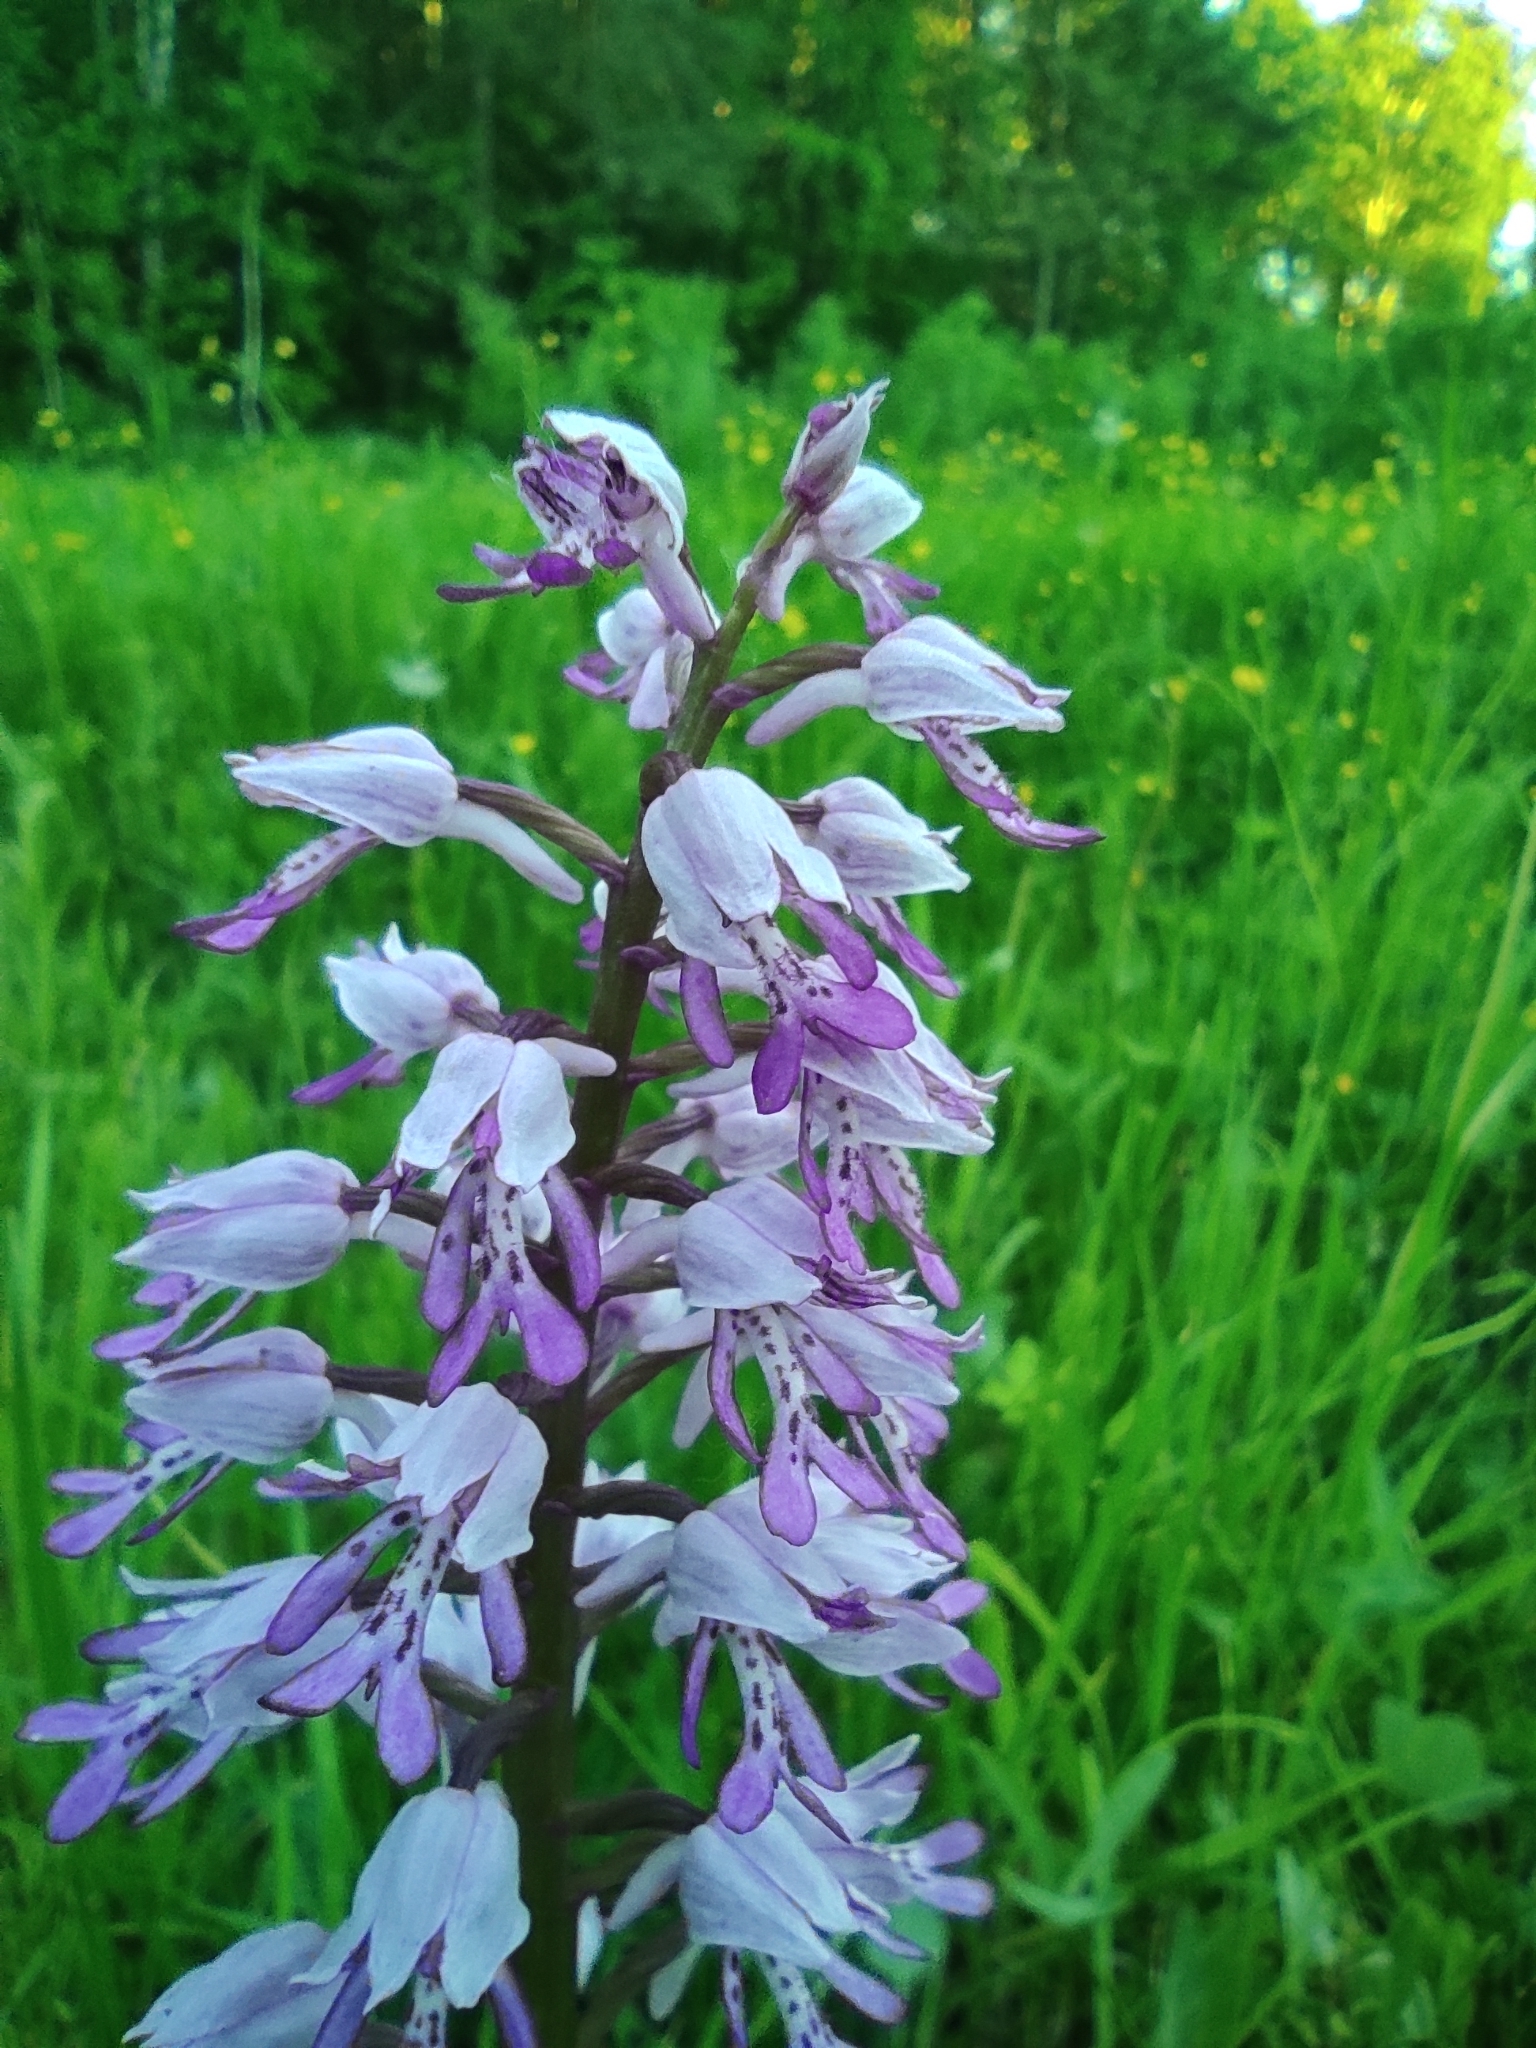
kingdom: Plantae
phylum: Tracheophyta
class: Liliopsida
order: Asparagales
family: Orchidaceae
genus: Orchis
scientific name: Orchis militaris
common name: Military orchid
